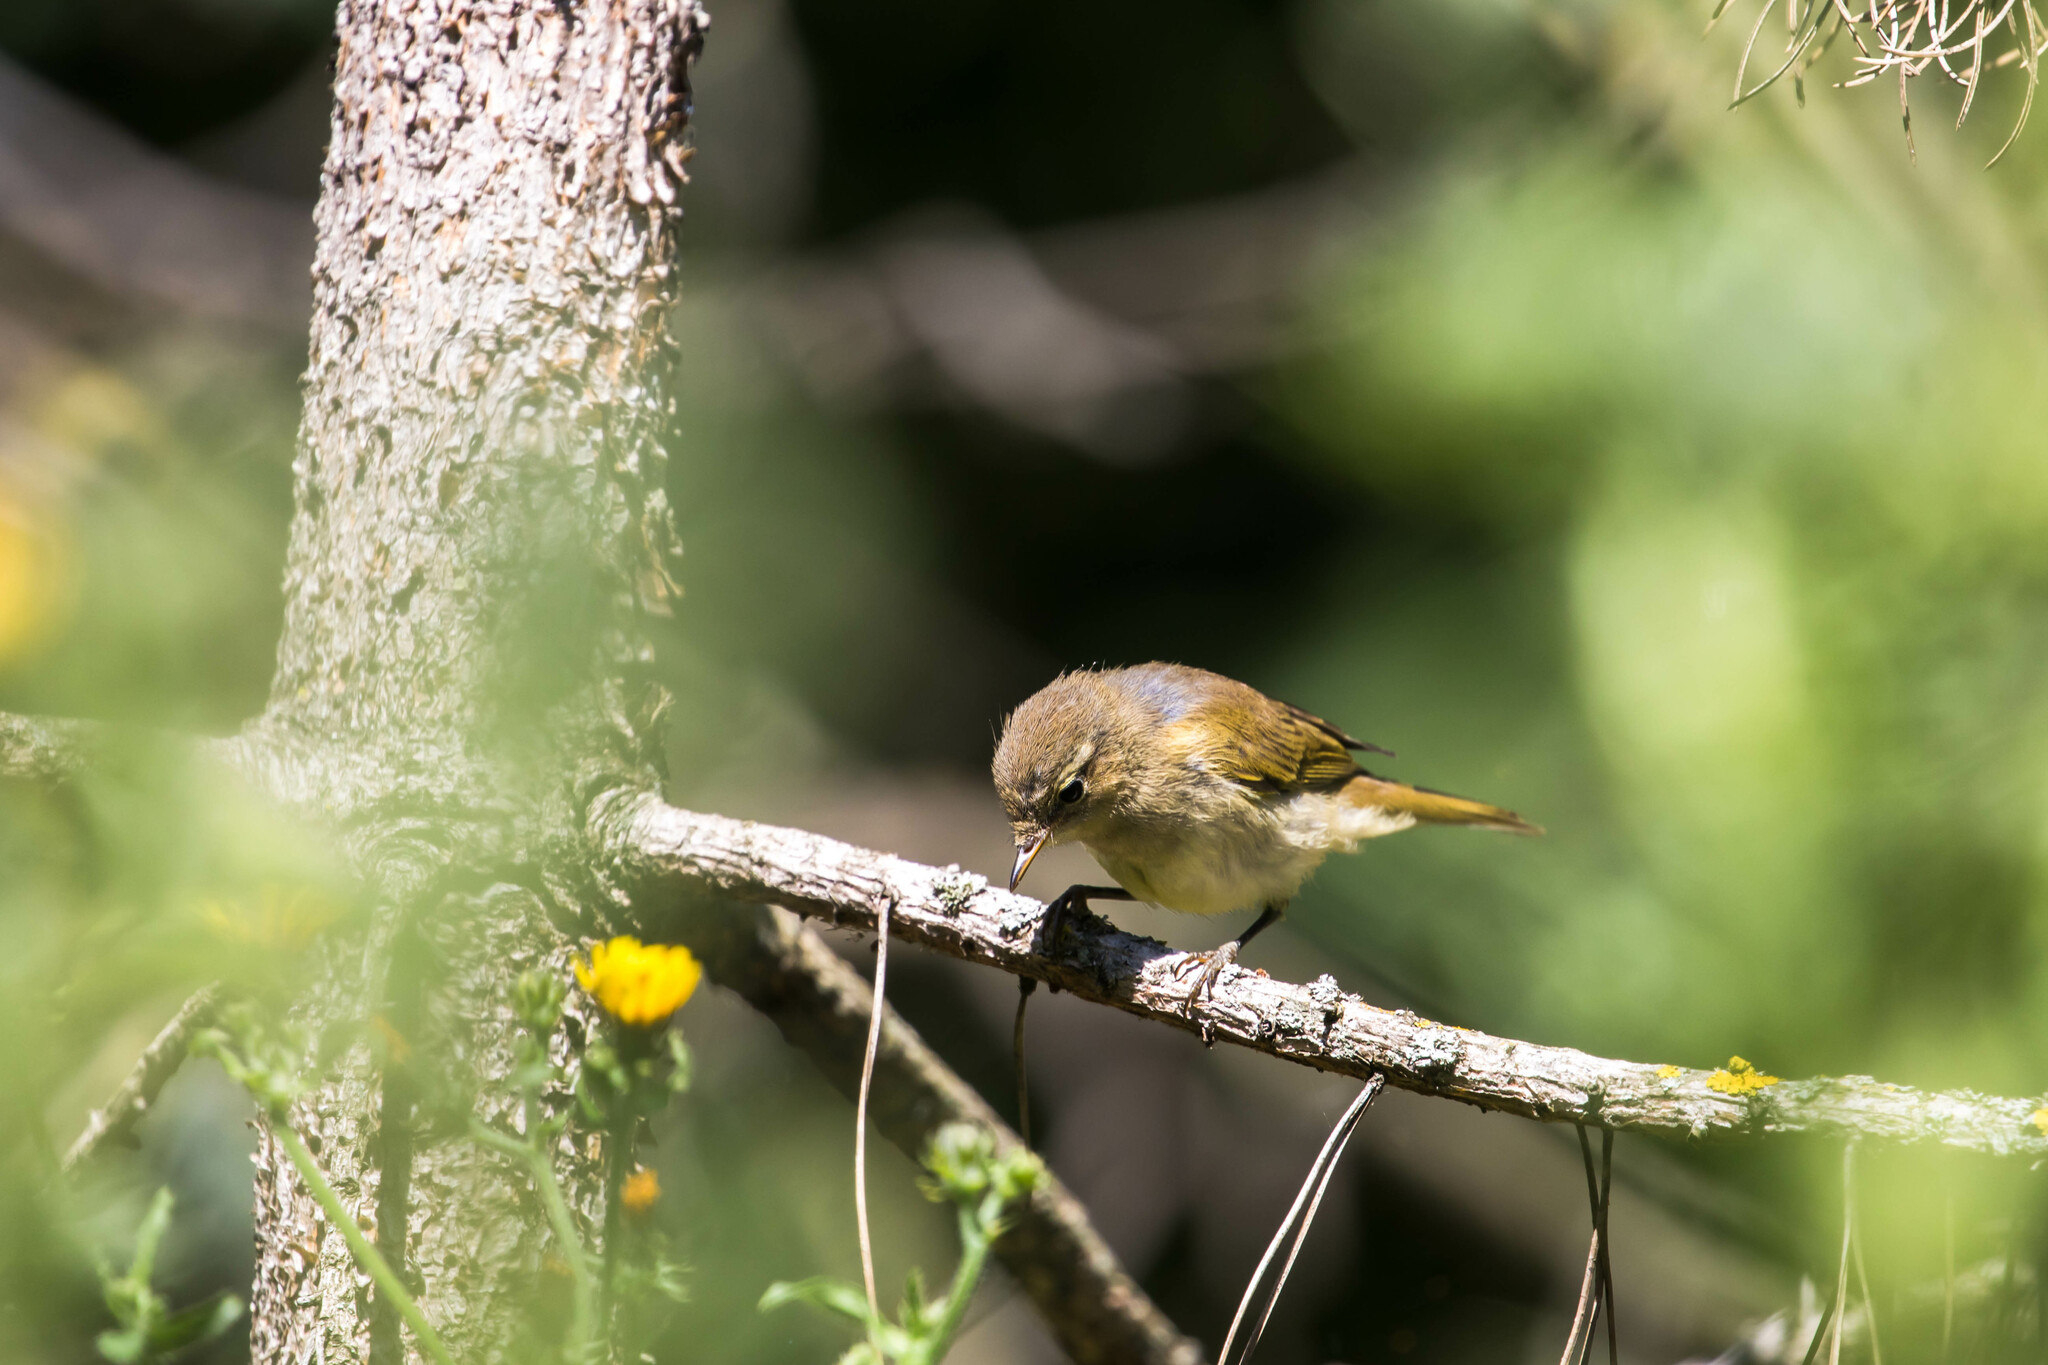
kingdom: Animalia
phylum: Chordata
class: Aves
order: Passeriformes
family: Phylloscopidae
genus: Phylloscopus
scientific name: Phylloscopus collybita
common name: Common chiffchaff
